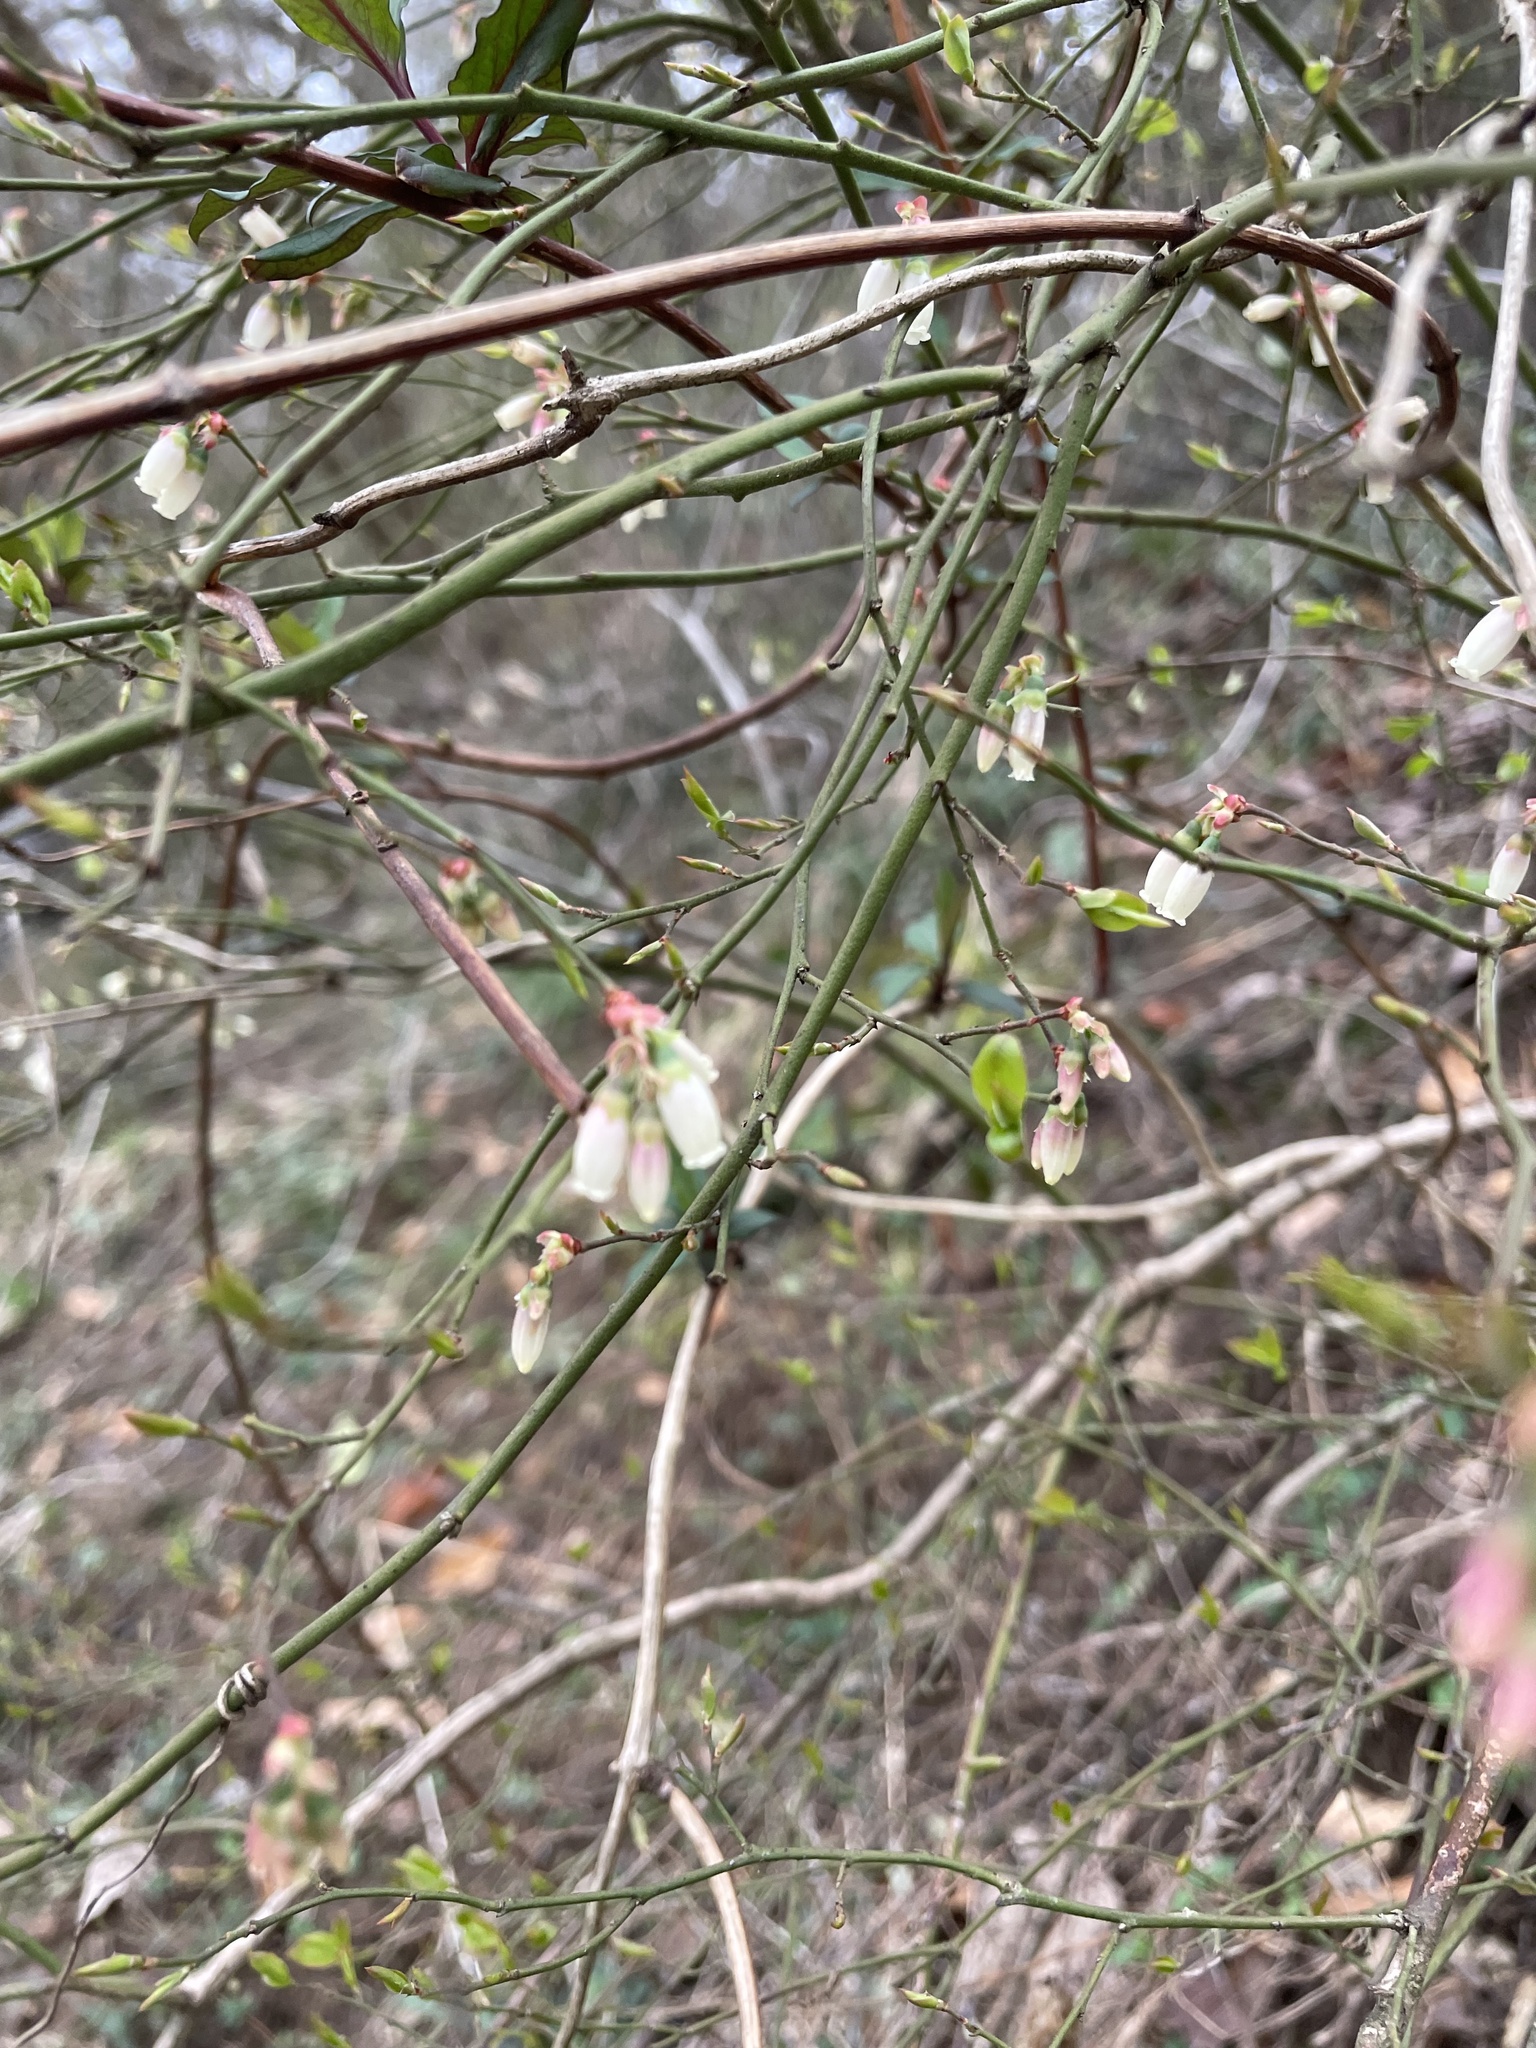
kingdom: Plantae
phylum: Tracheophyta
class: Magnoliopsida
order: Ericales
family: Ericaceae
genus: Vaccinium
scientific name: Vaccinium corymbosum
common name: Blueberry
